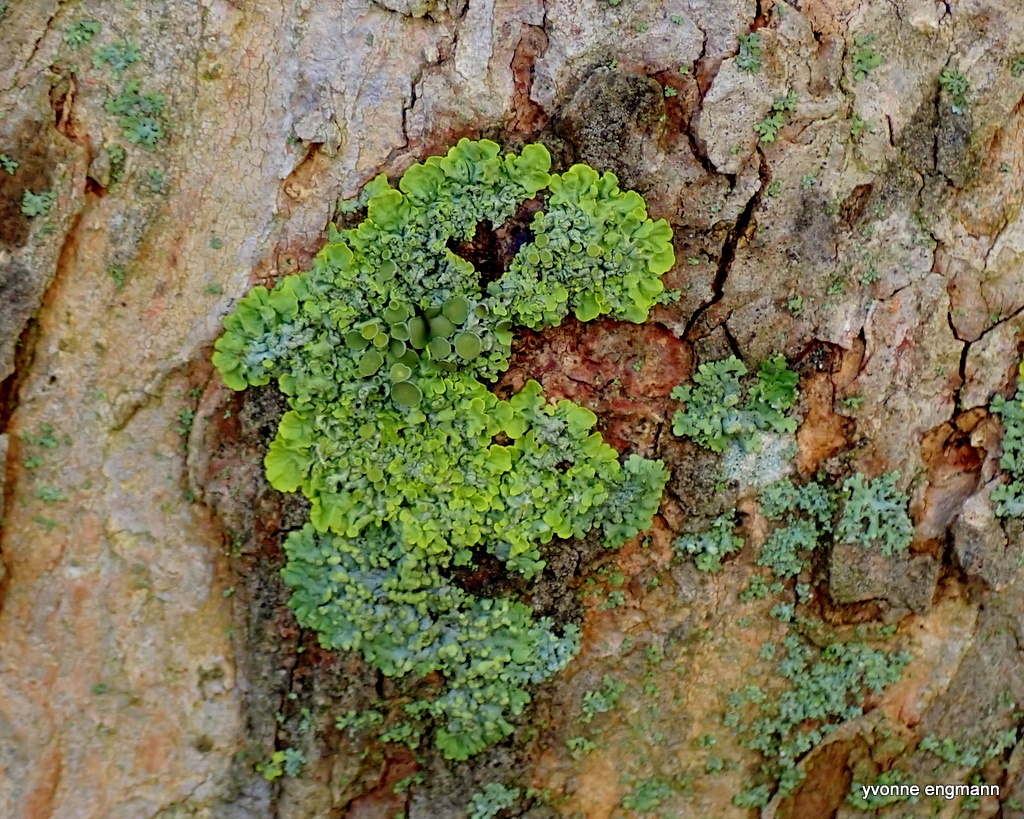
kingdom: Fungi
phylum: Ascomycota
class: Lecanoromycetes
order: Teloschistales
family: Teloschistaceae
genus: Xanthoria
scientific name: Xanthoria parietina
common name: Common orange lichen
